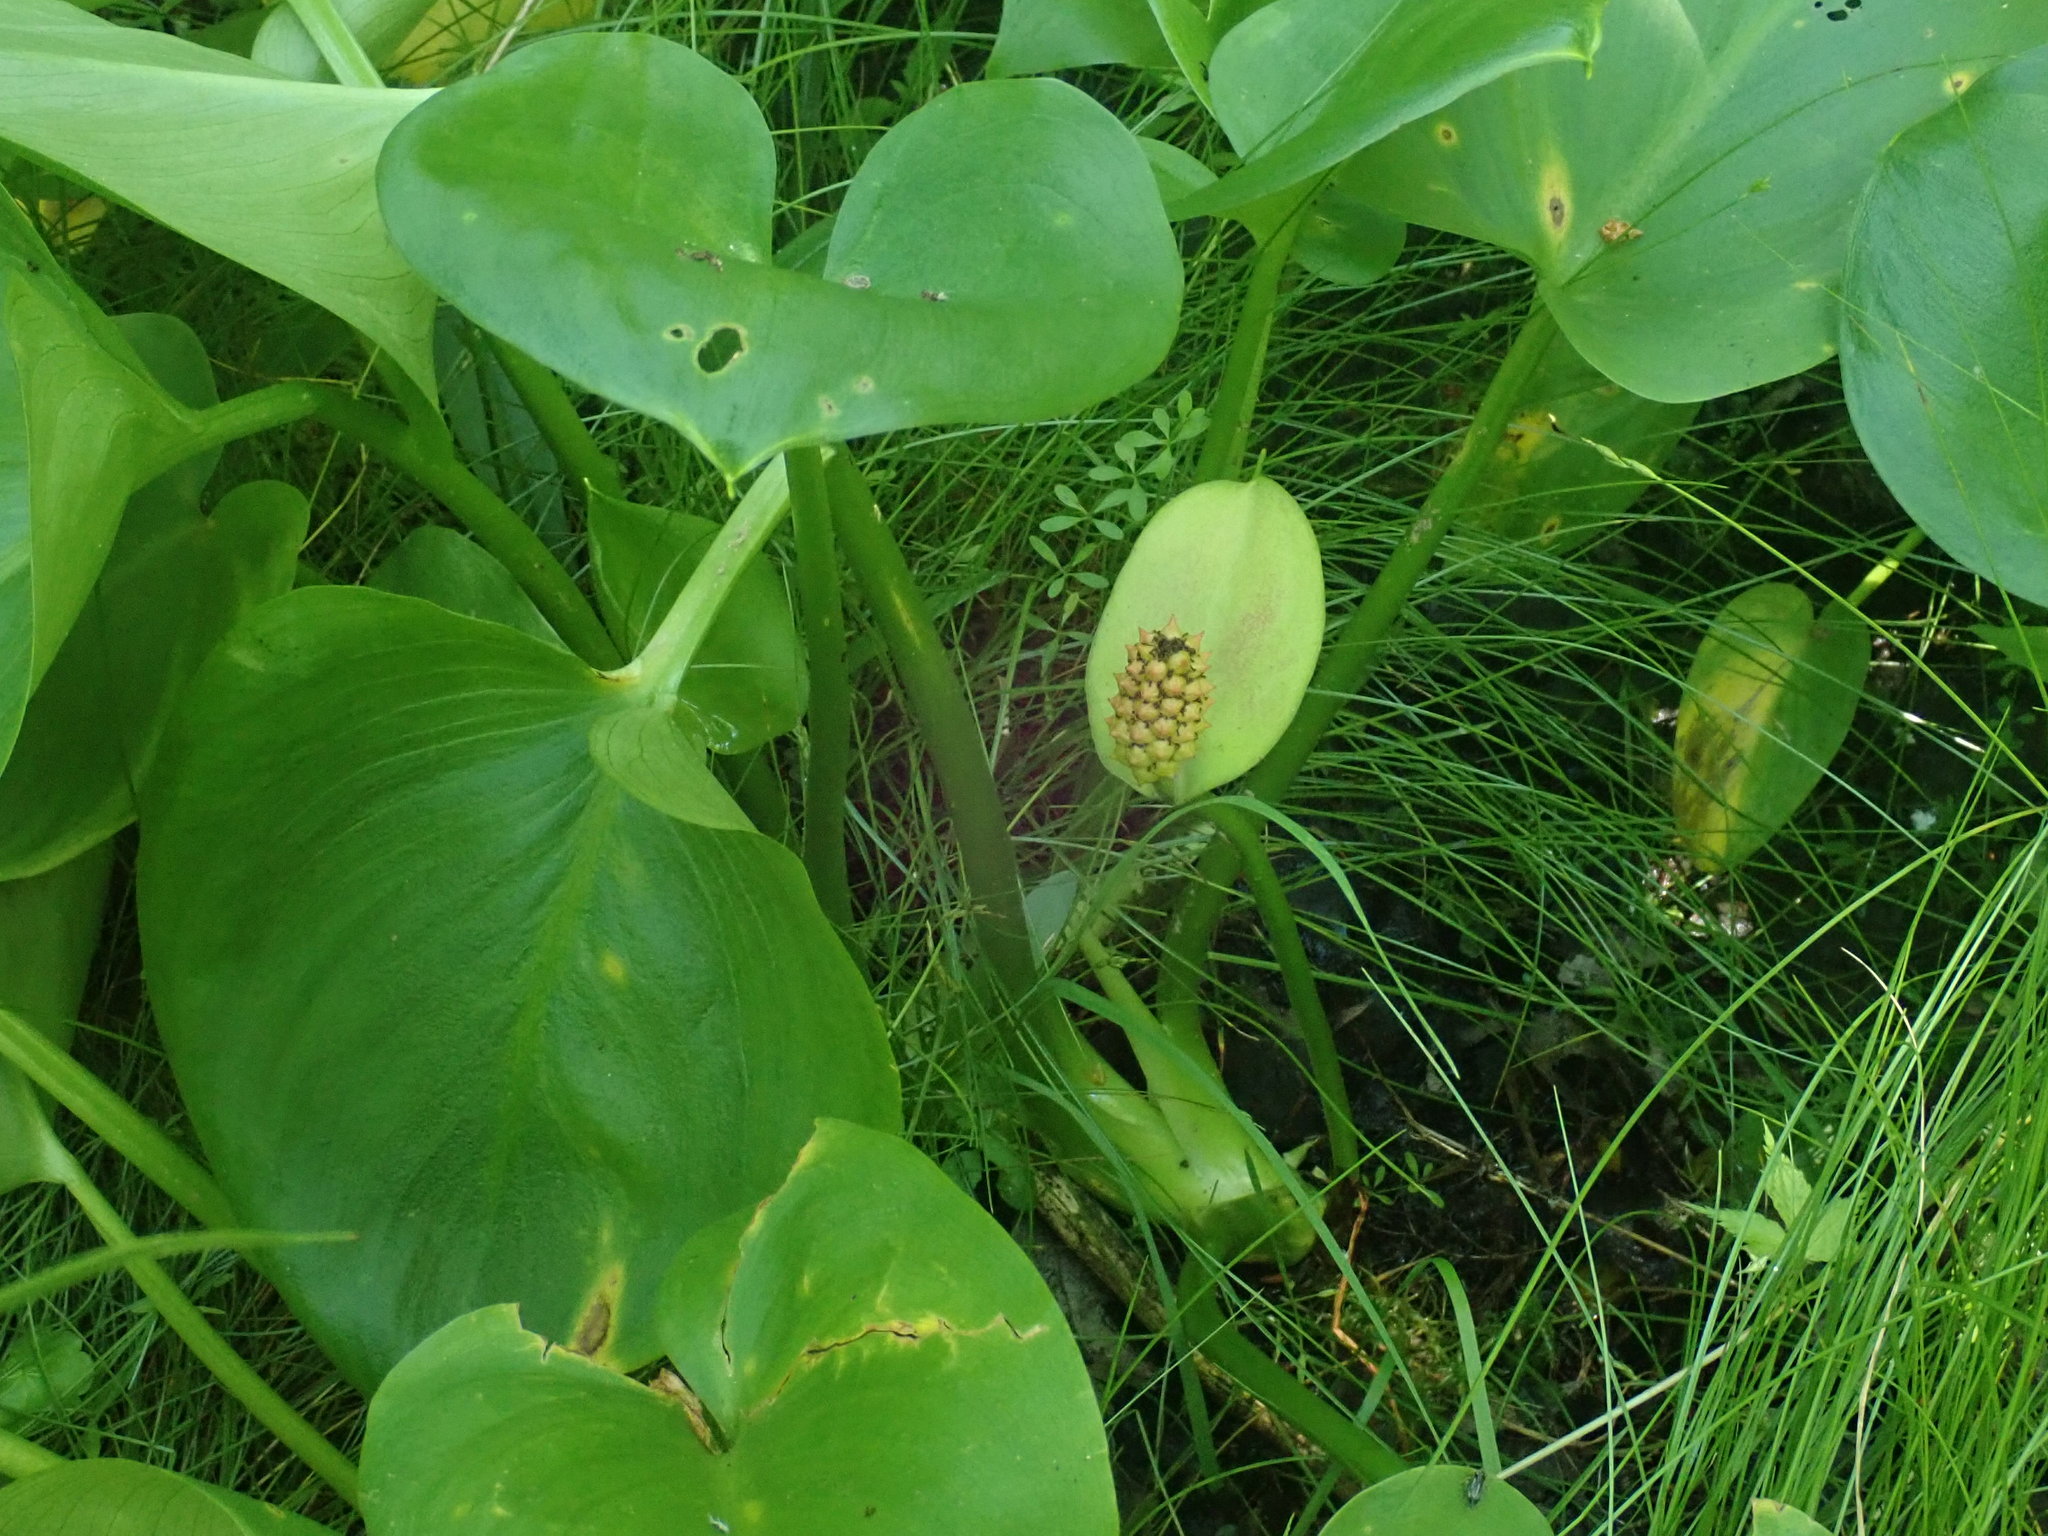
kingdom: Plantae
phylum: Tracheophyta
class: Liliopsida
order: Alismatales
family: Araceae
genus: Calla
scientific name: Calla palustris
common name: Bog arum
